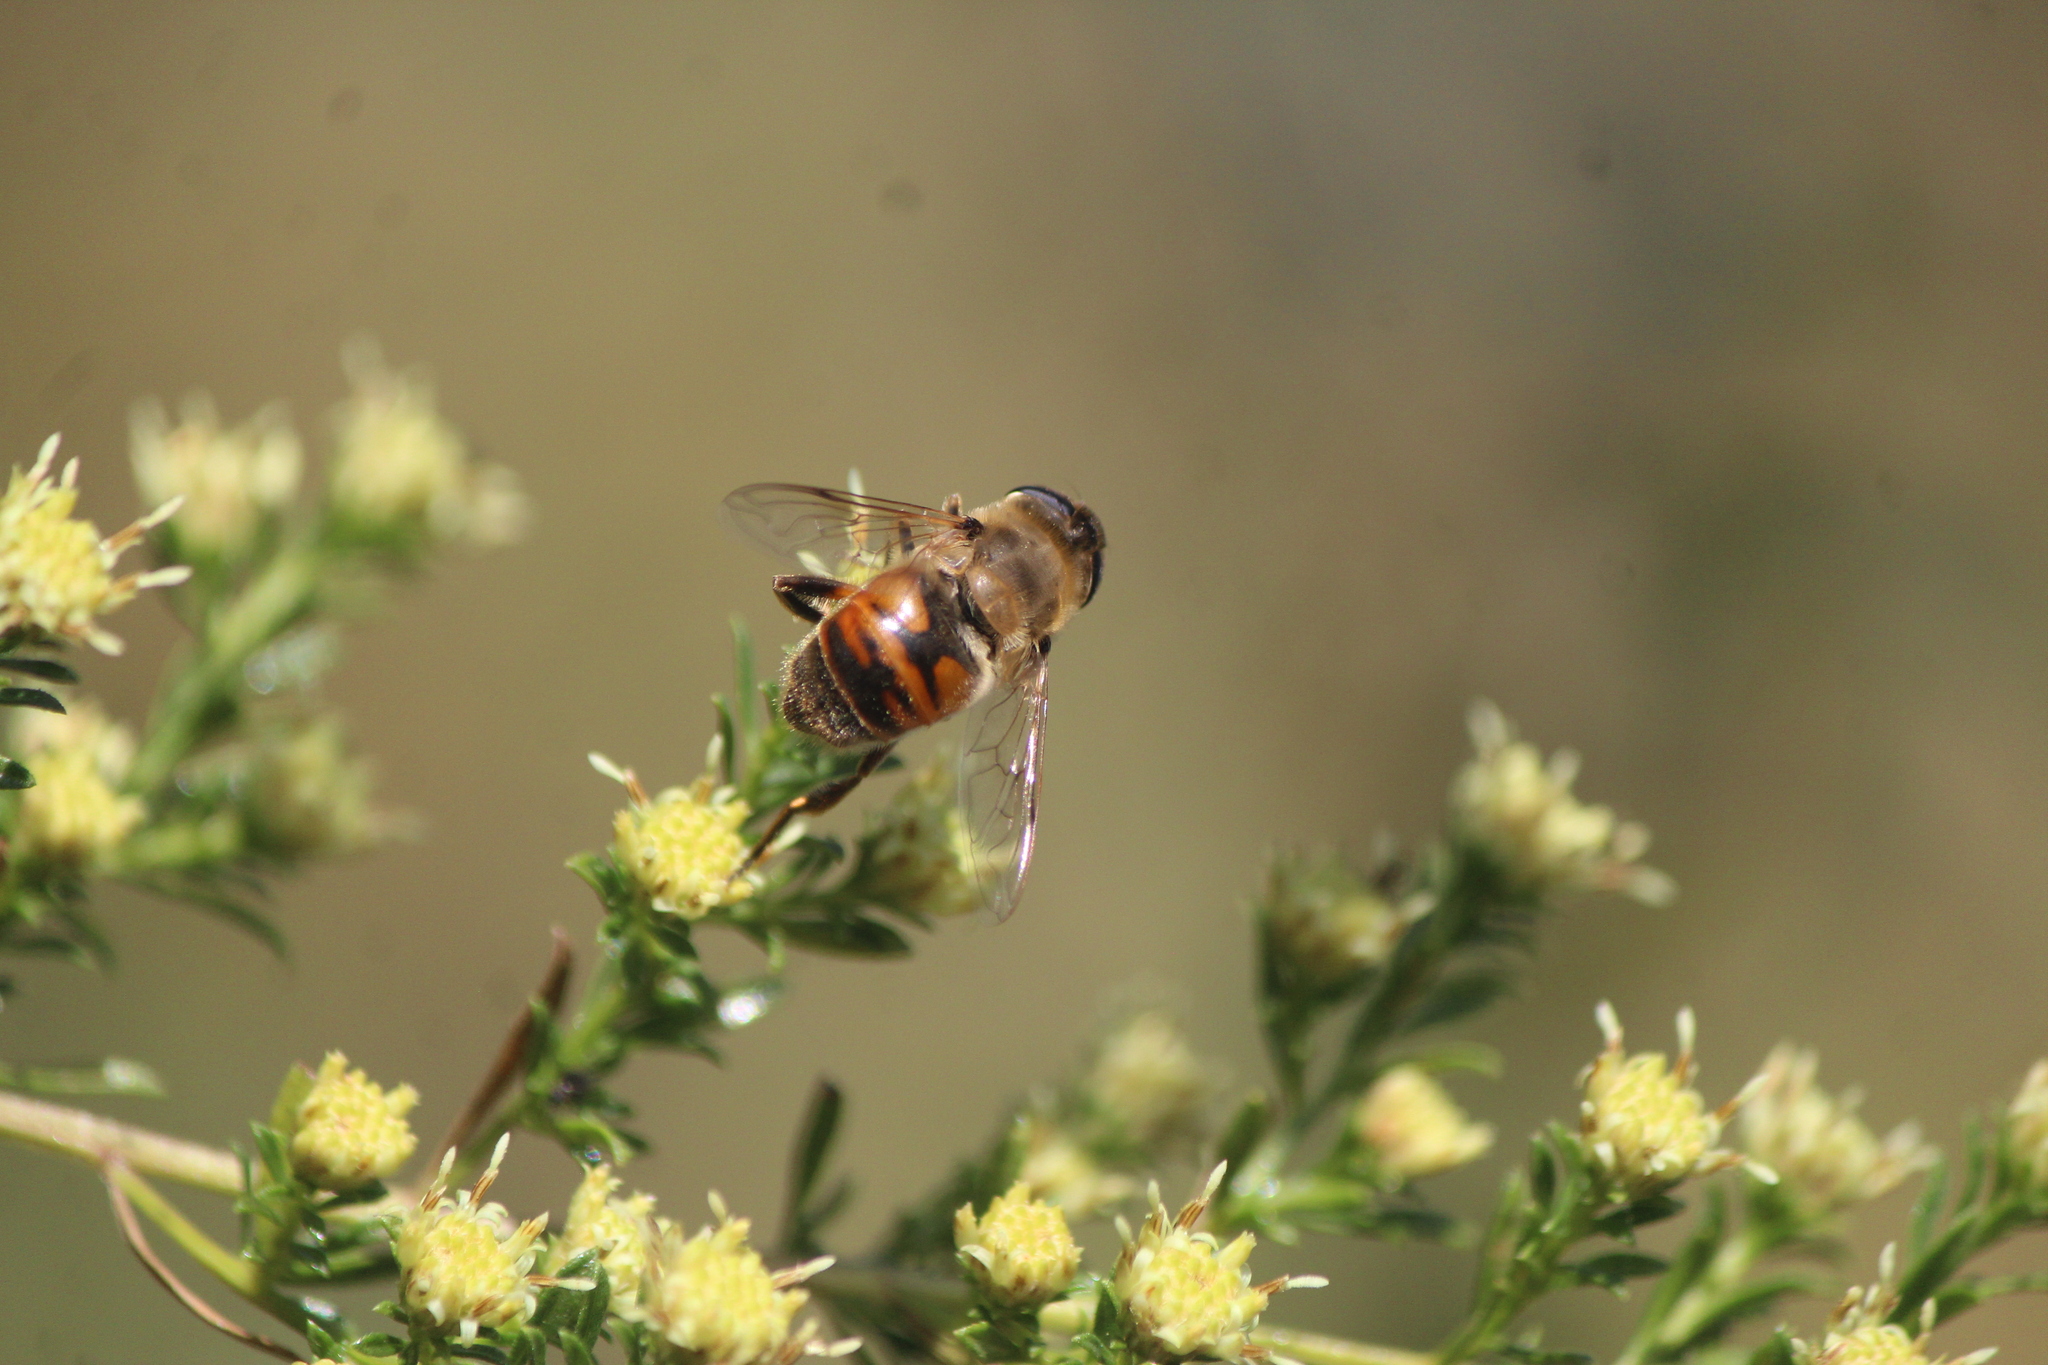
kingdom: Animalia
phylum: Arthropoda
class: Insecta
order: Diptera
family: Syrphidae
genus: Eristalis
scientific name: Eristalis tenax
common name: Drone fly
